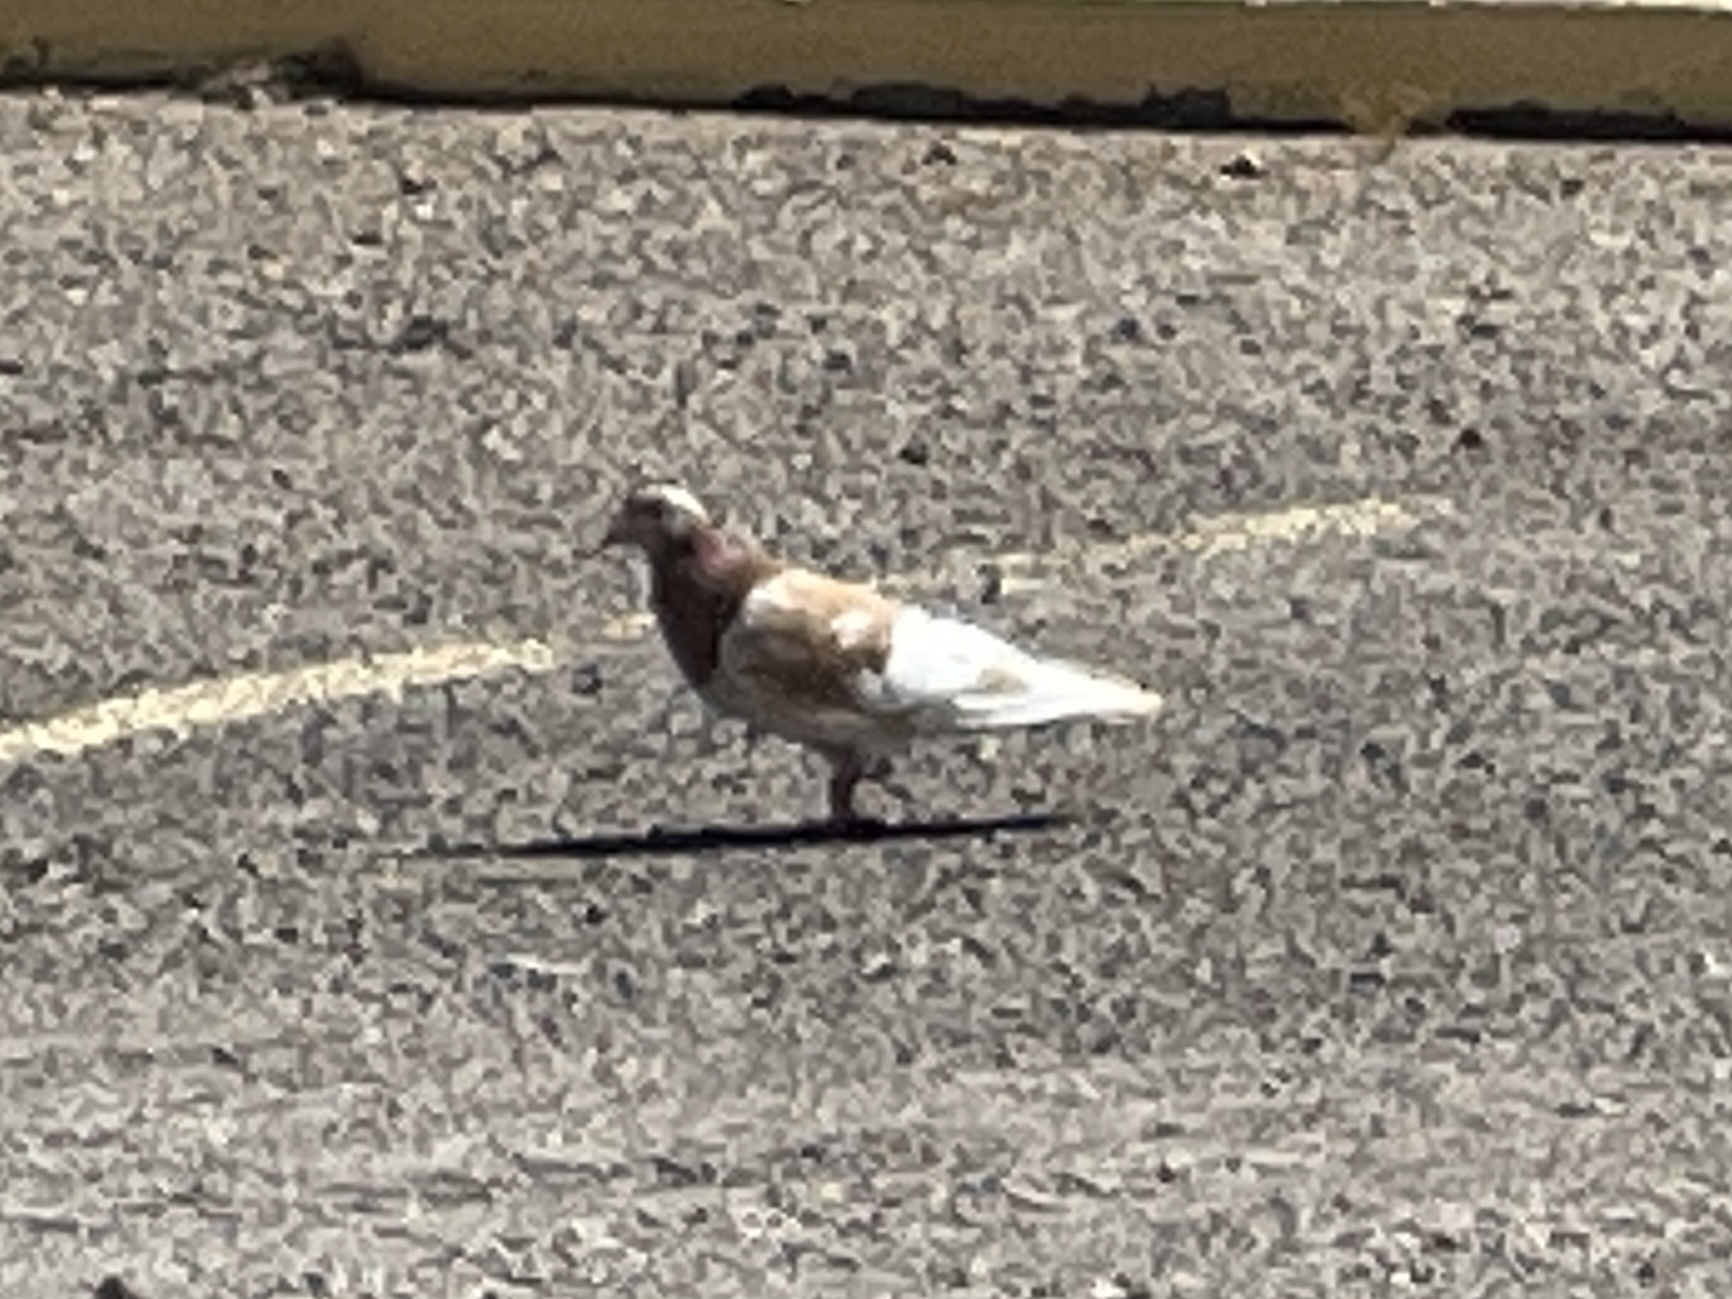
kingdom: Animalia
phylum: Chordata
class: Aves
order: Columbiformes
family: Columbidae
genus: Columba
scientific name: Columba livia
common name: Rock pigeon
